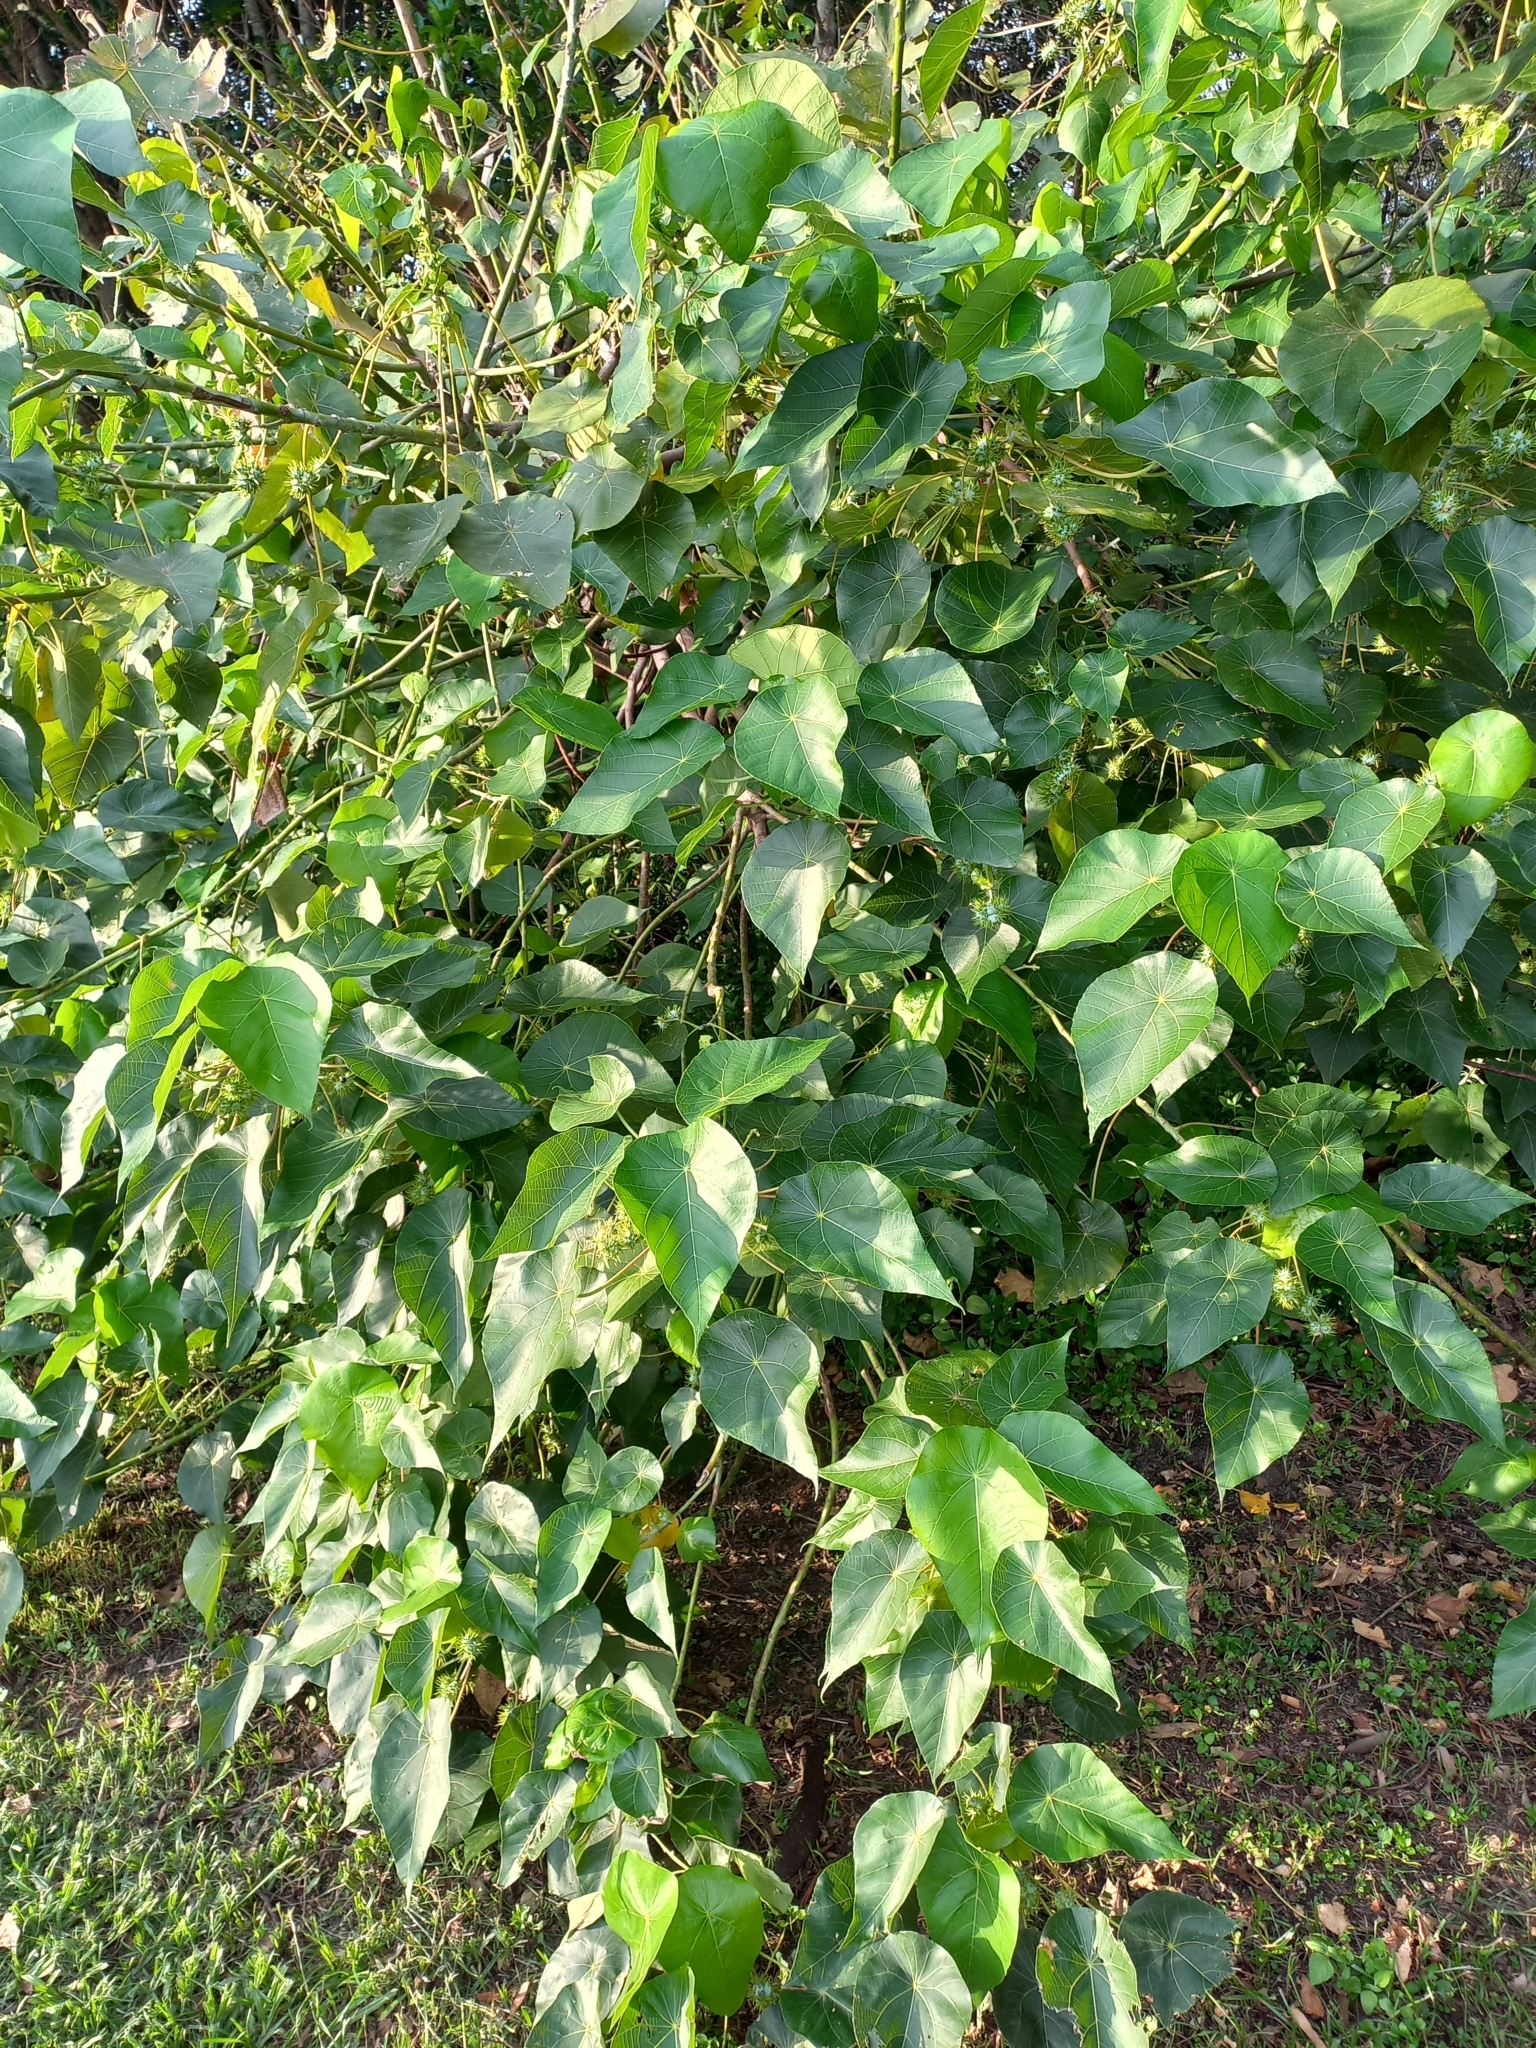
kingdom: Plantae
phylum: Tracheophyta
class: Magnoliopsida
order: Malpighiales
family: Euphorbiaceae
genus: Macaranga
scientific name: Macaranga tanarius
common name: Parasol leaf tree
